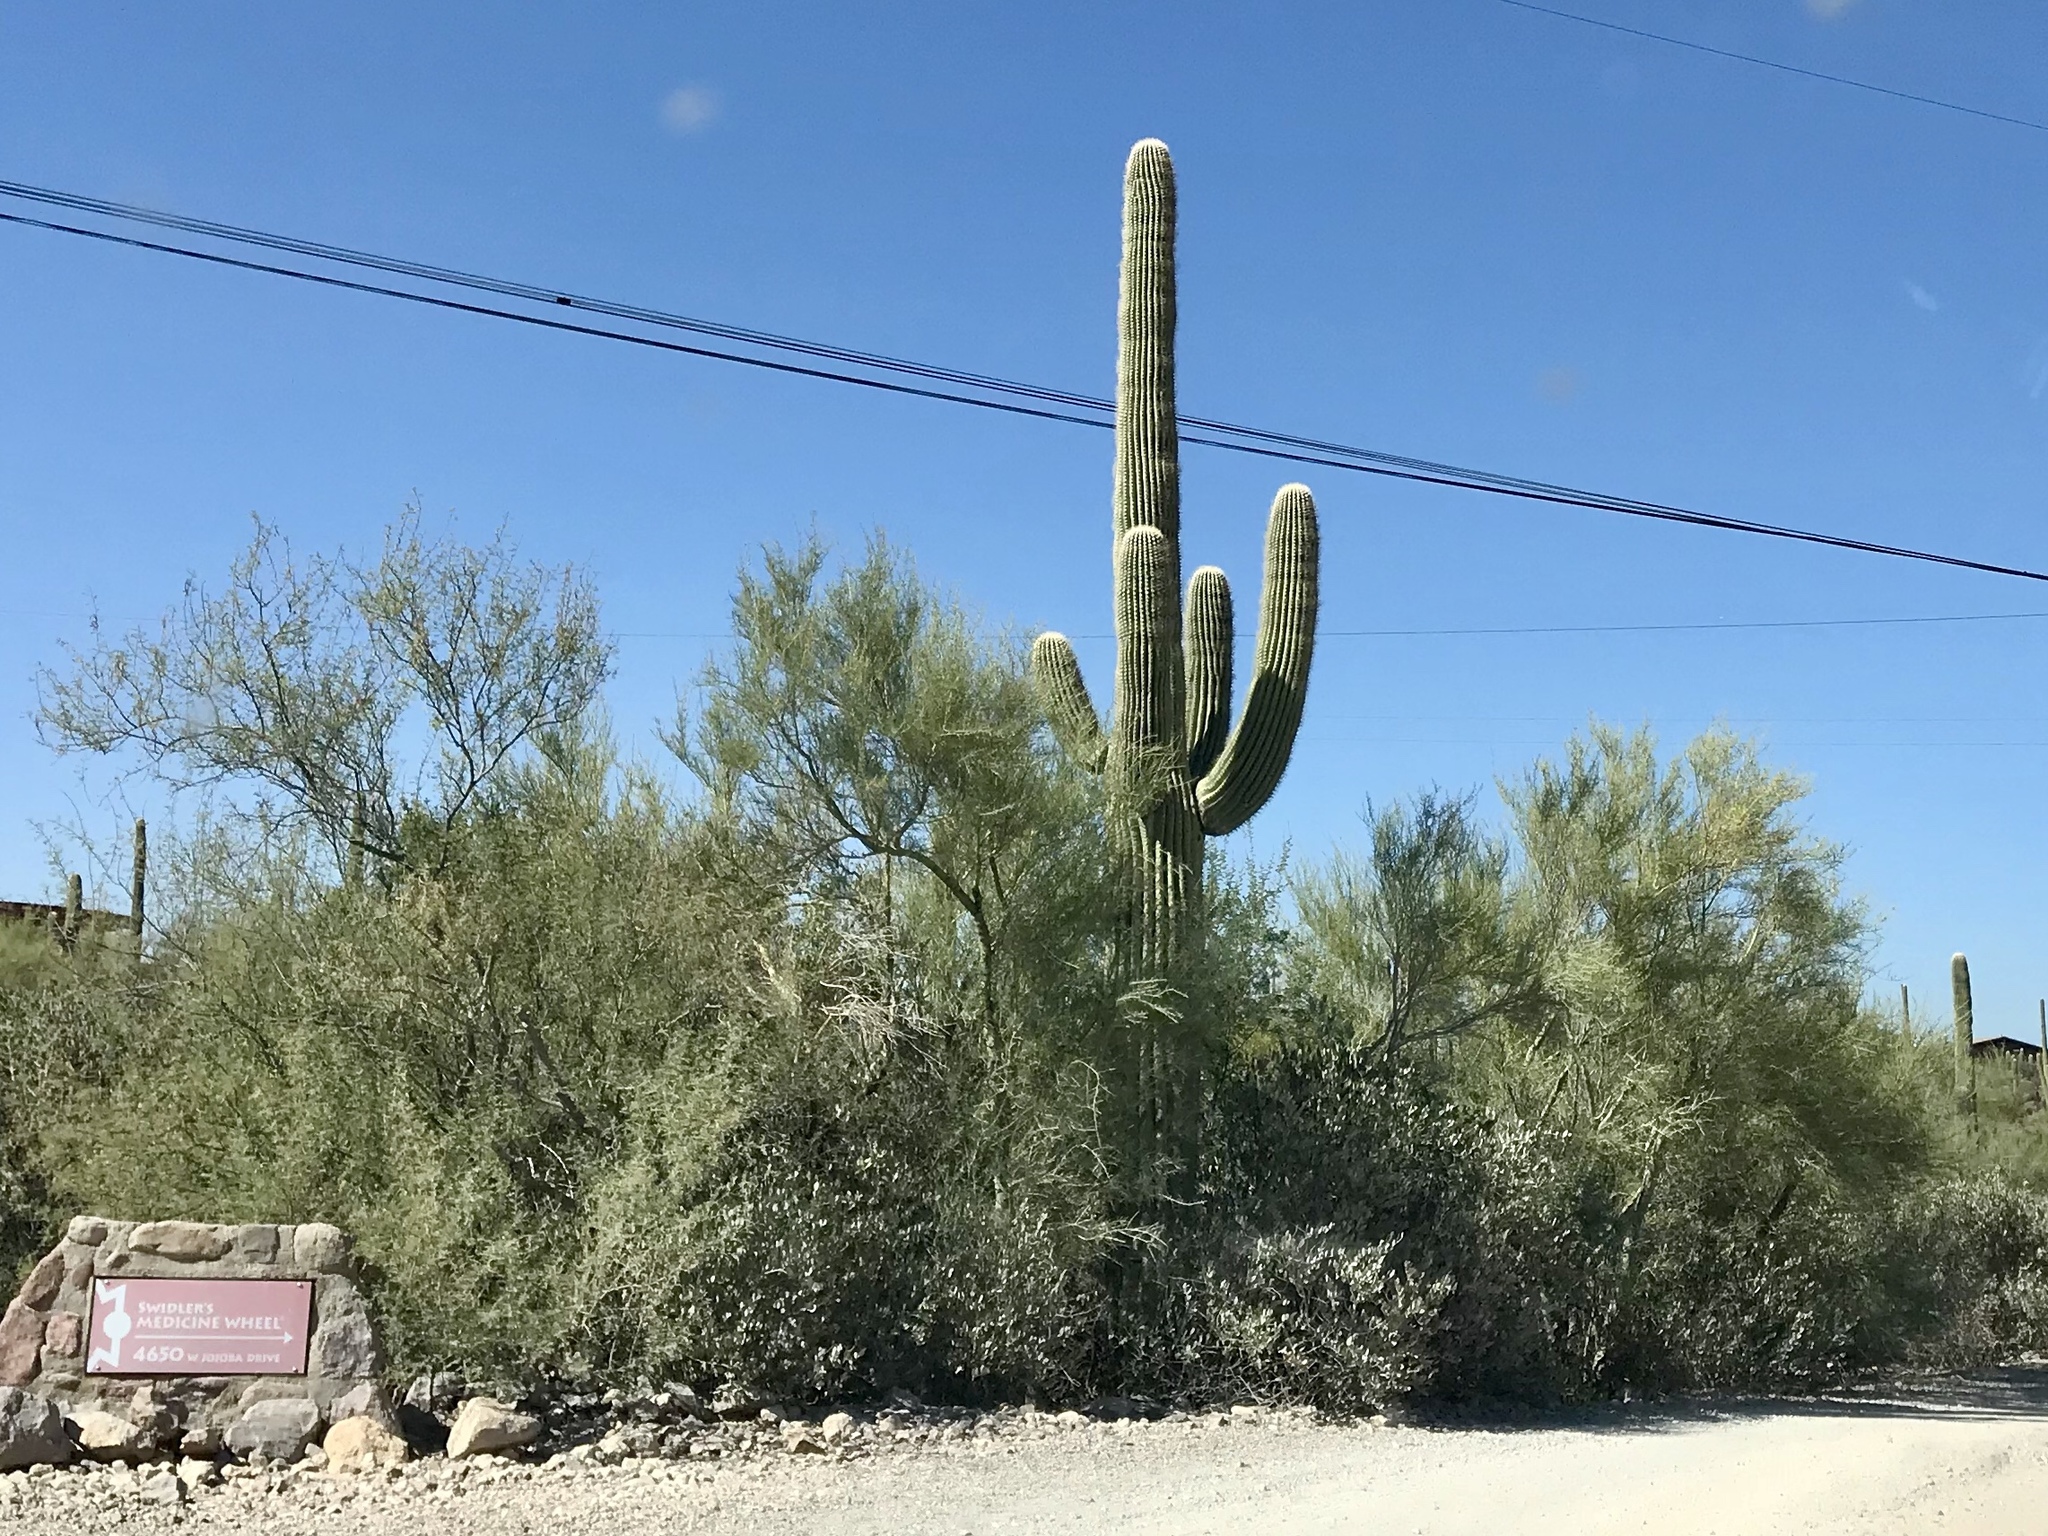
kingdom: Plantae
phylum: Tracheophyta
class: Magnoliopsida
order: Fabales
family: Fabaceae
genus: Parkinsonia
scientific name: Parkinsonia microphylla
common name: Yellow paloverde
